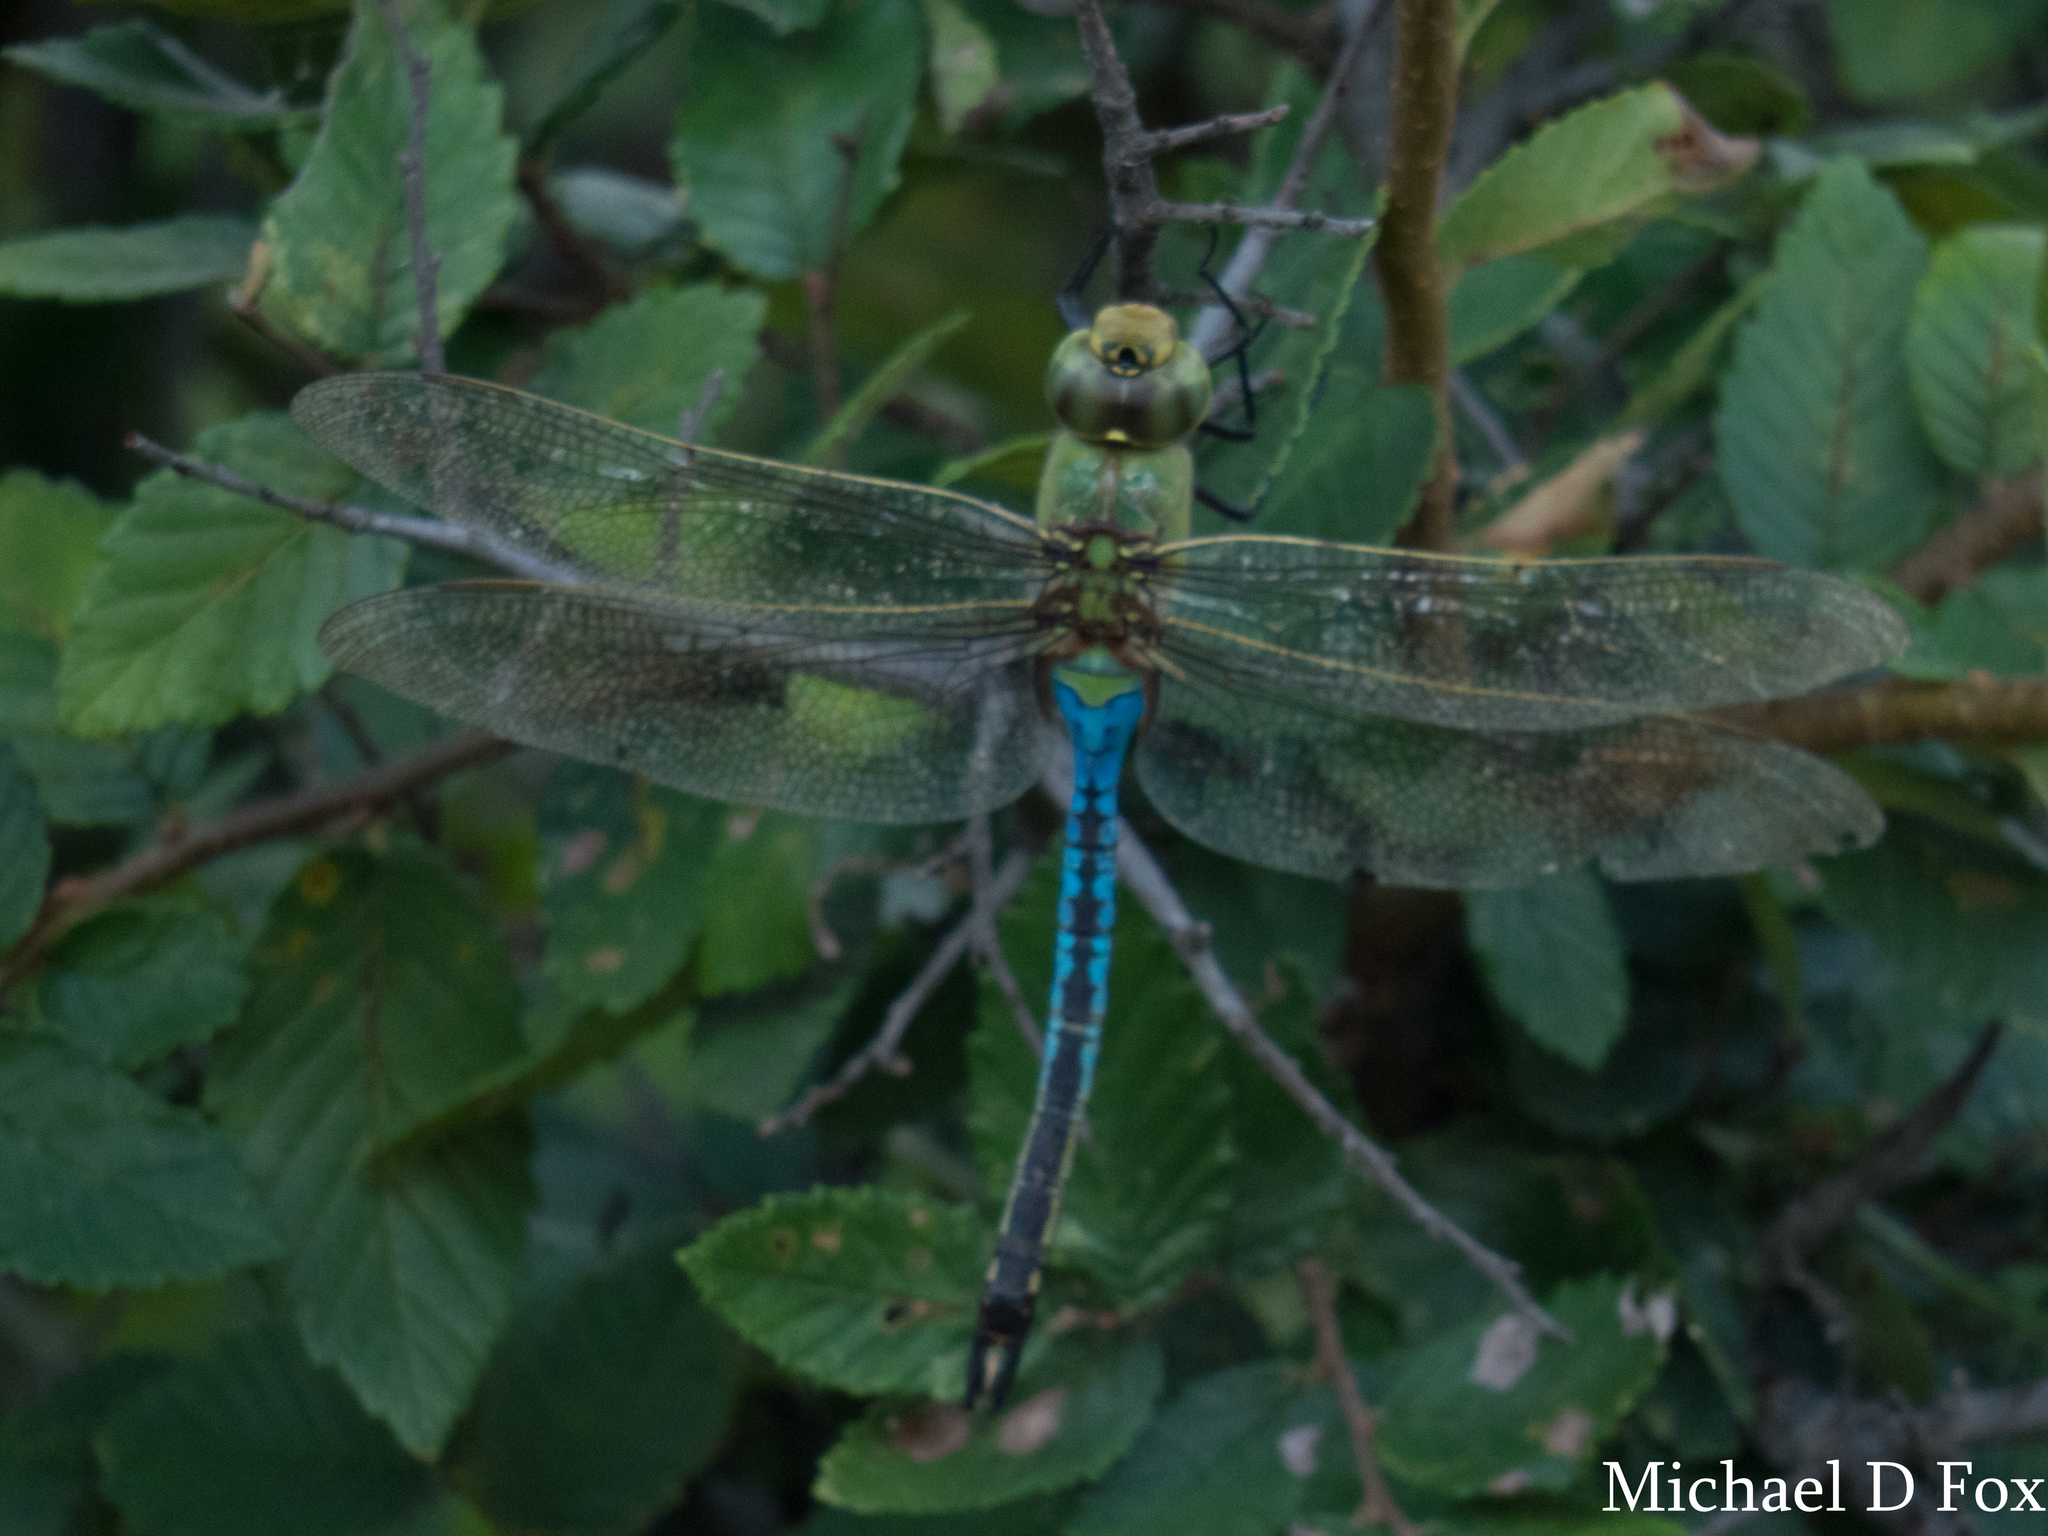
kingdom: Animalia
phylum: Arthropoda
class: Insecta
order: Odonata
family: Aeshnidae
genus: Anax
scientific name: Anax junius
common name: Common green darner
